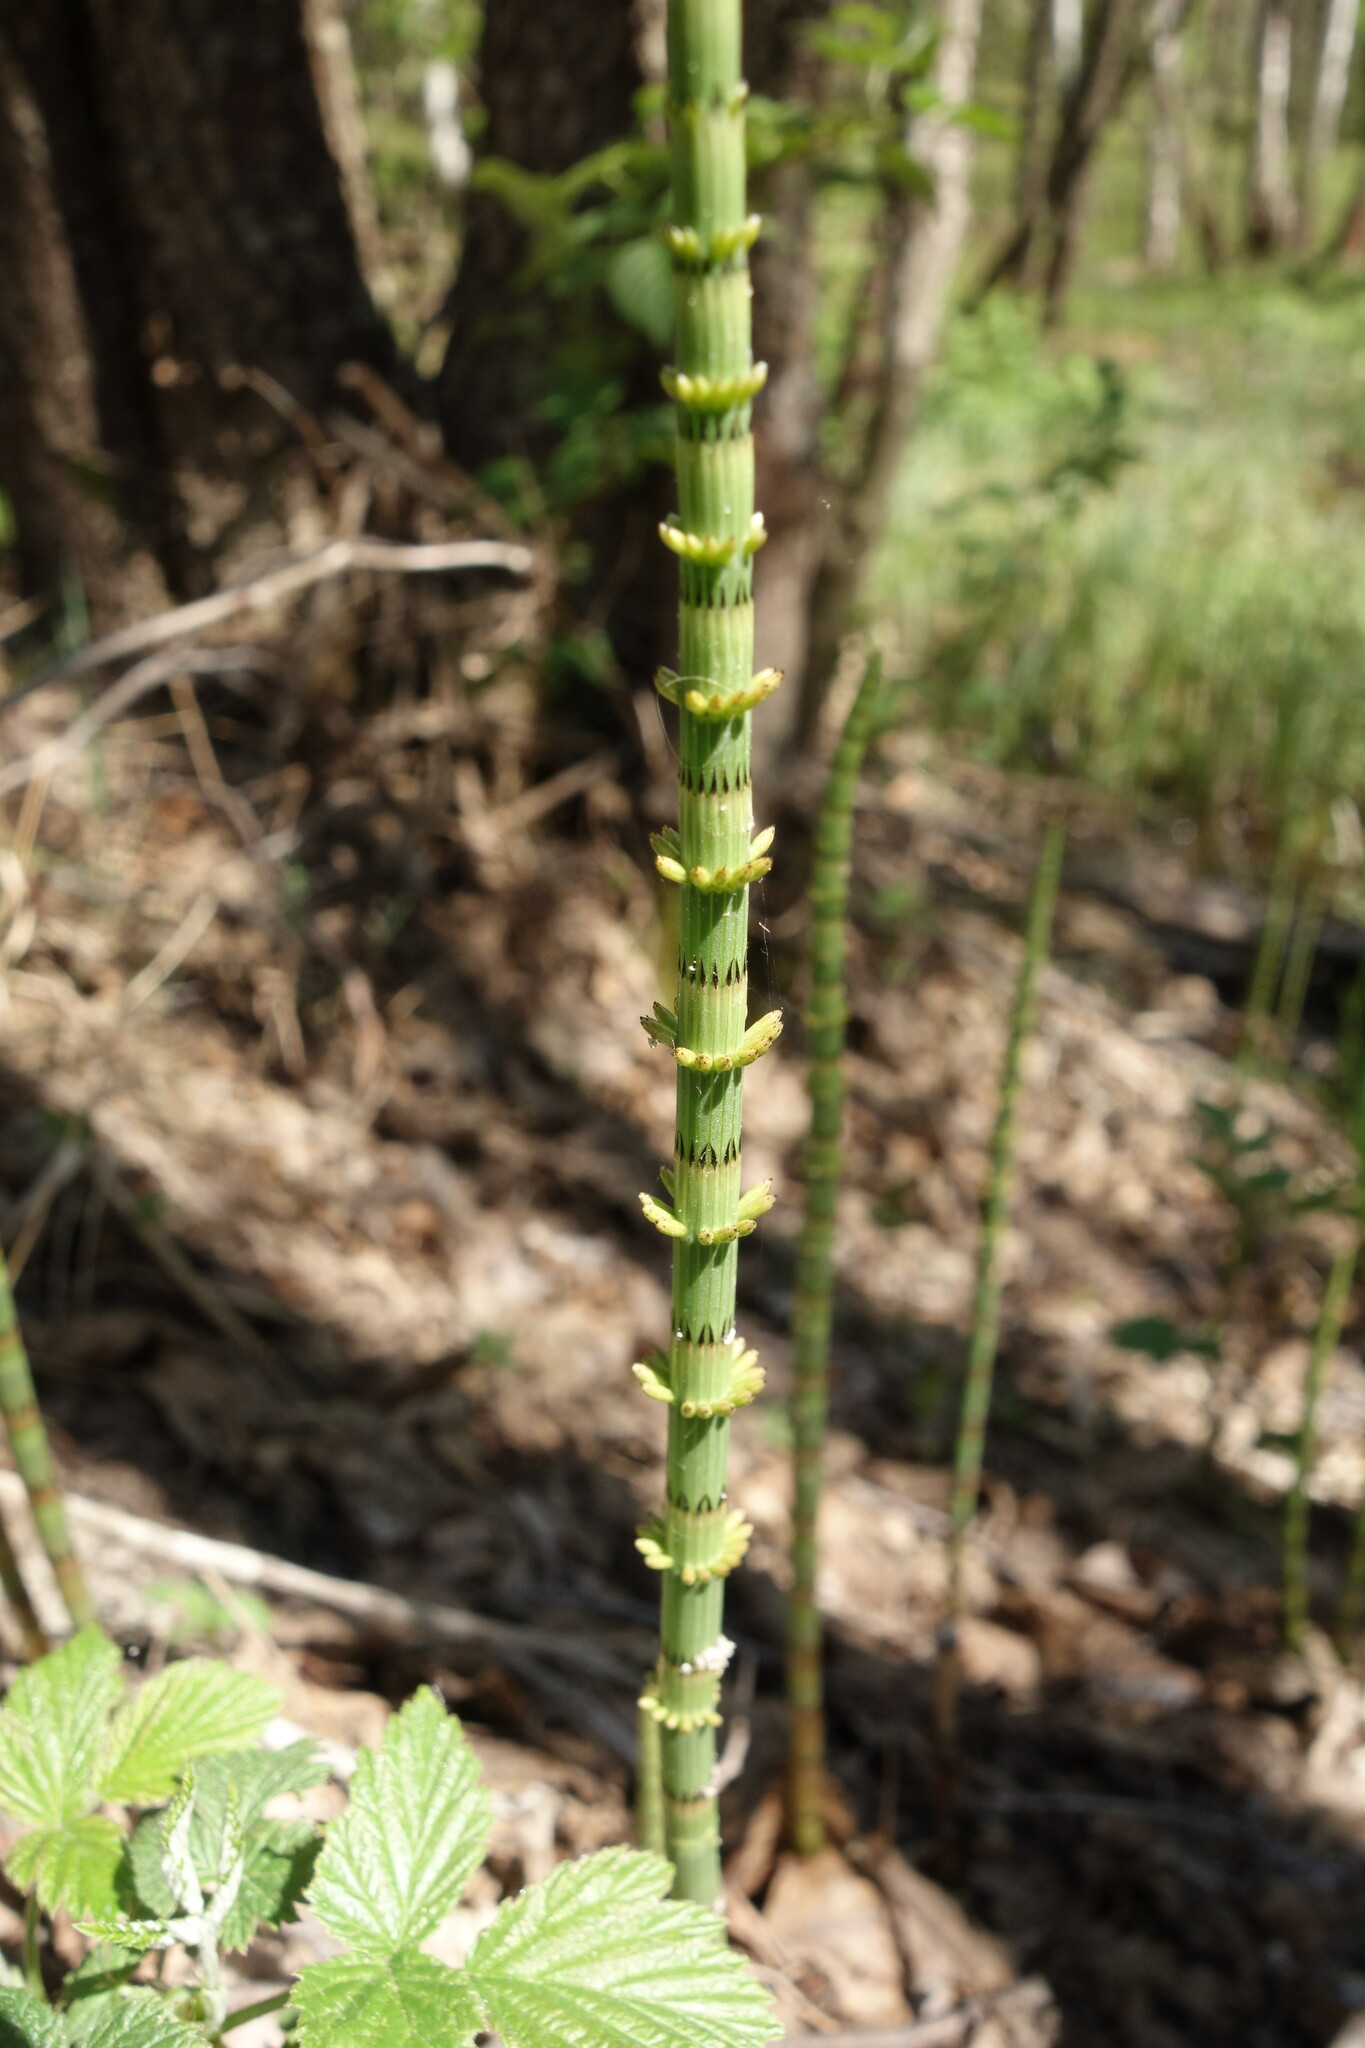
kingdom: Plantae
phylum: Tracheophyta
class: Polypodiopsida
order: Equisetales
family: Equisetaceae
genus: Equisetum
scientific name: Equisetum fluviatile
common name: Water horsetail
